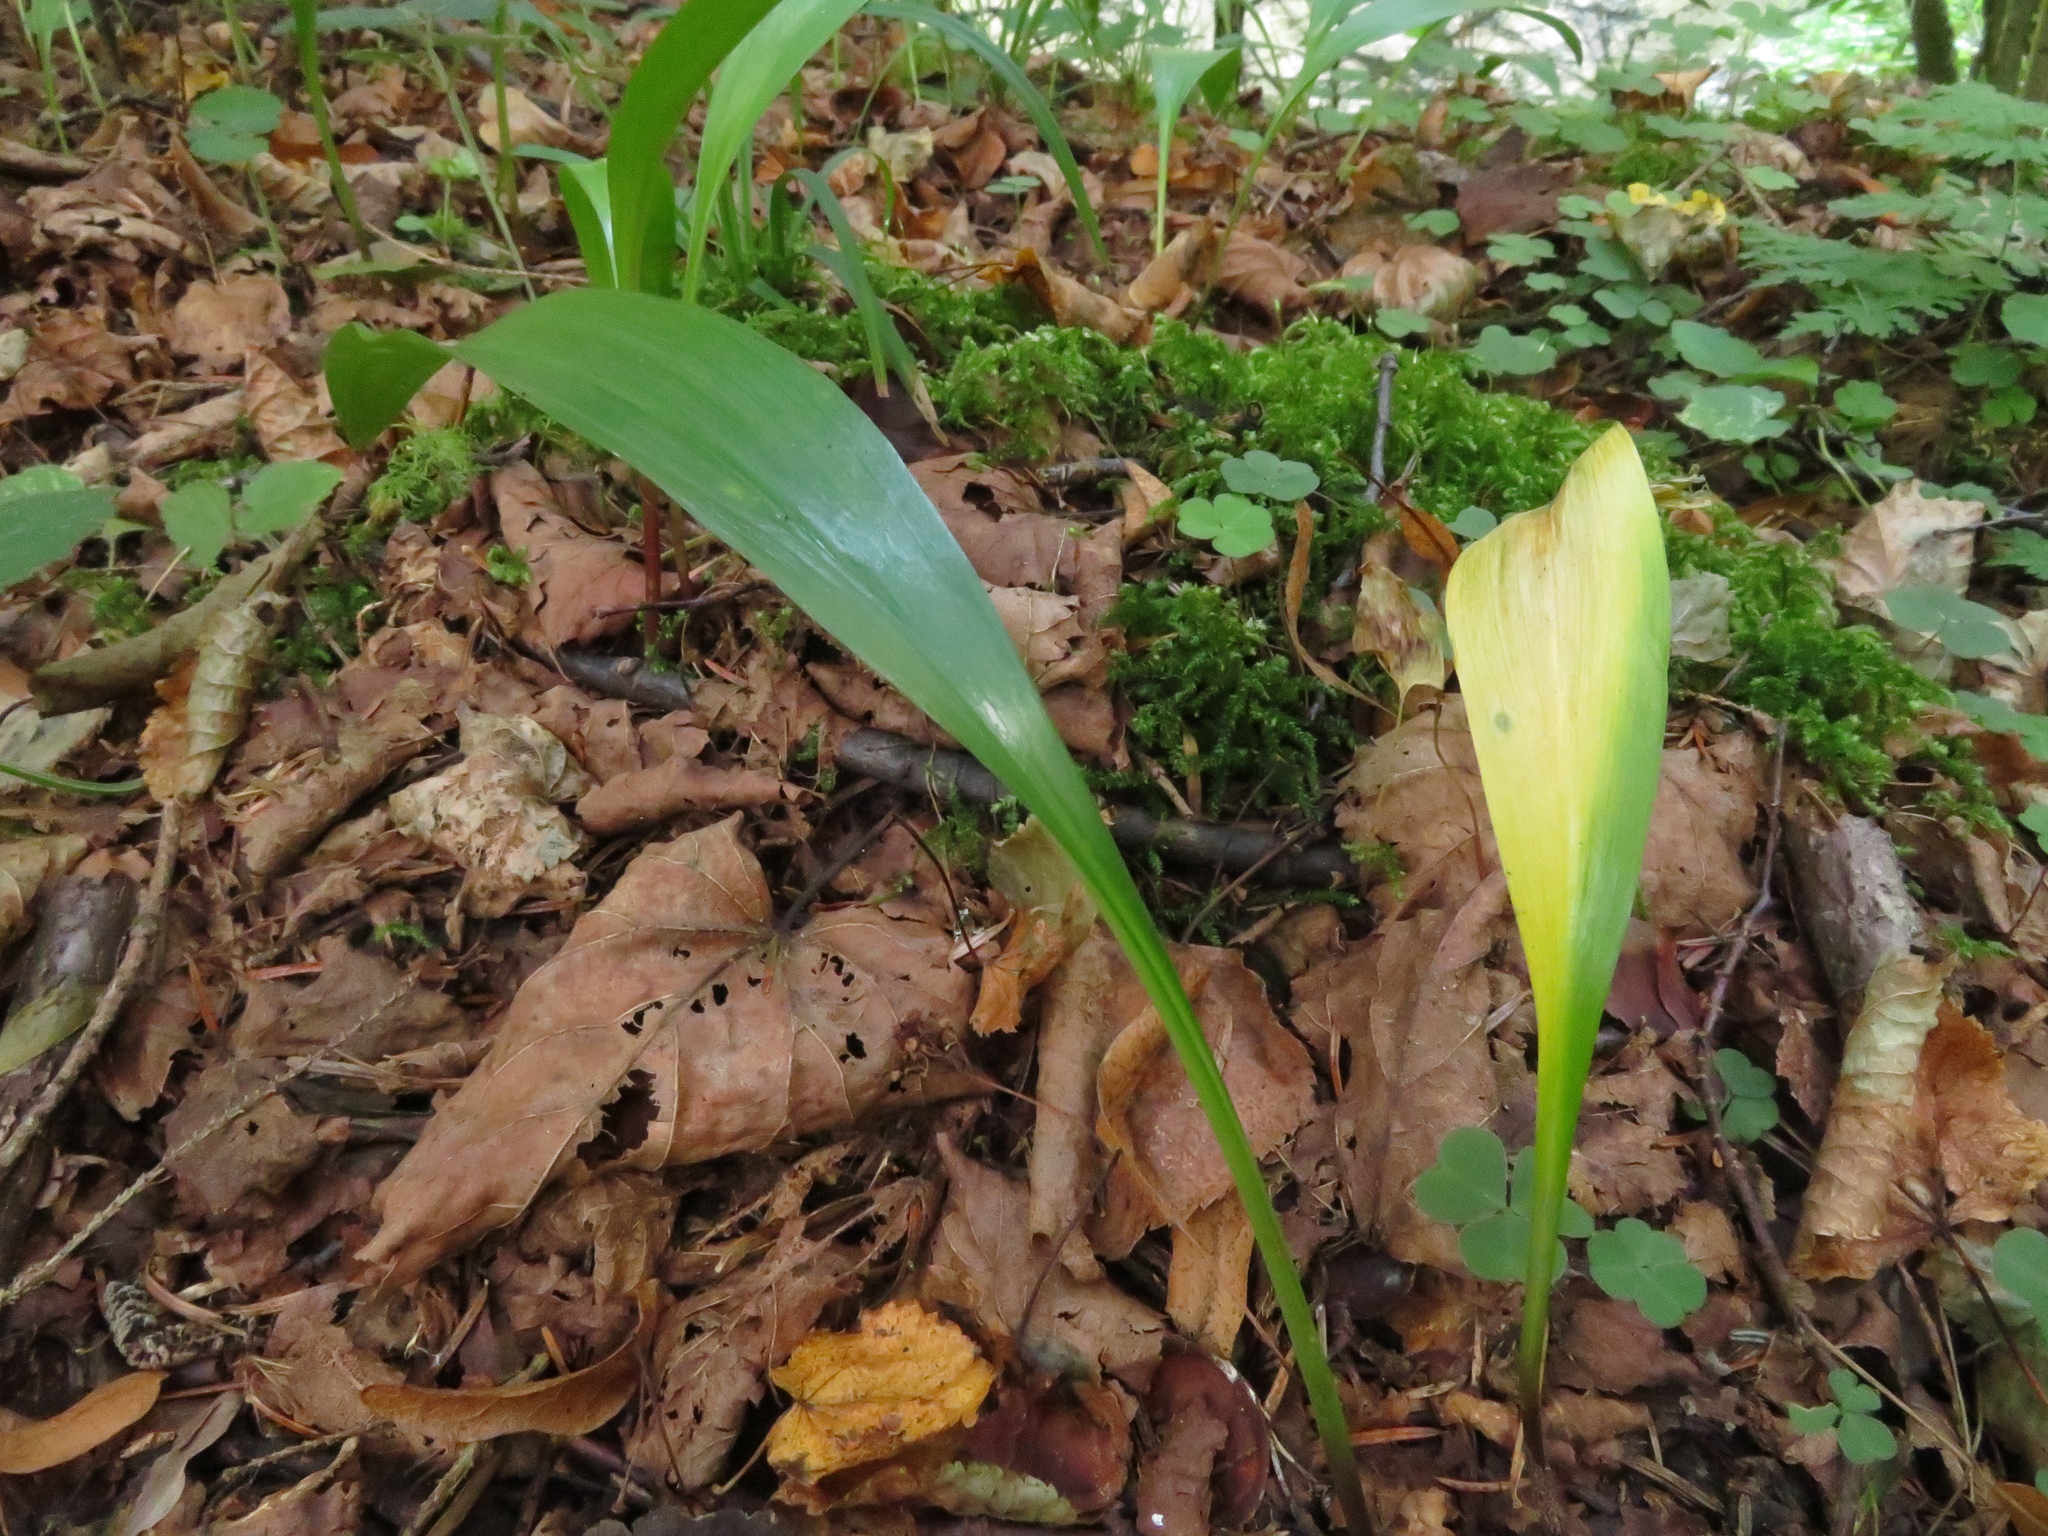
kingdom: Plantae
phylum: Tracheophyta
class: Liliopsida
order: Asparagales
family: Amaryllidaceae
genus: Allium
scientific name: Allium victorialis
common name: Alpine leek
